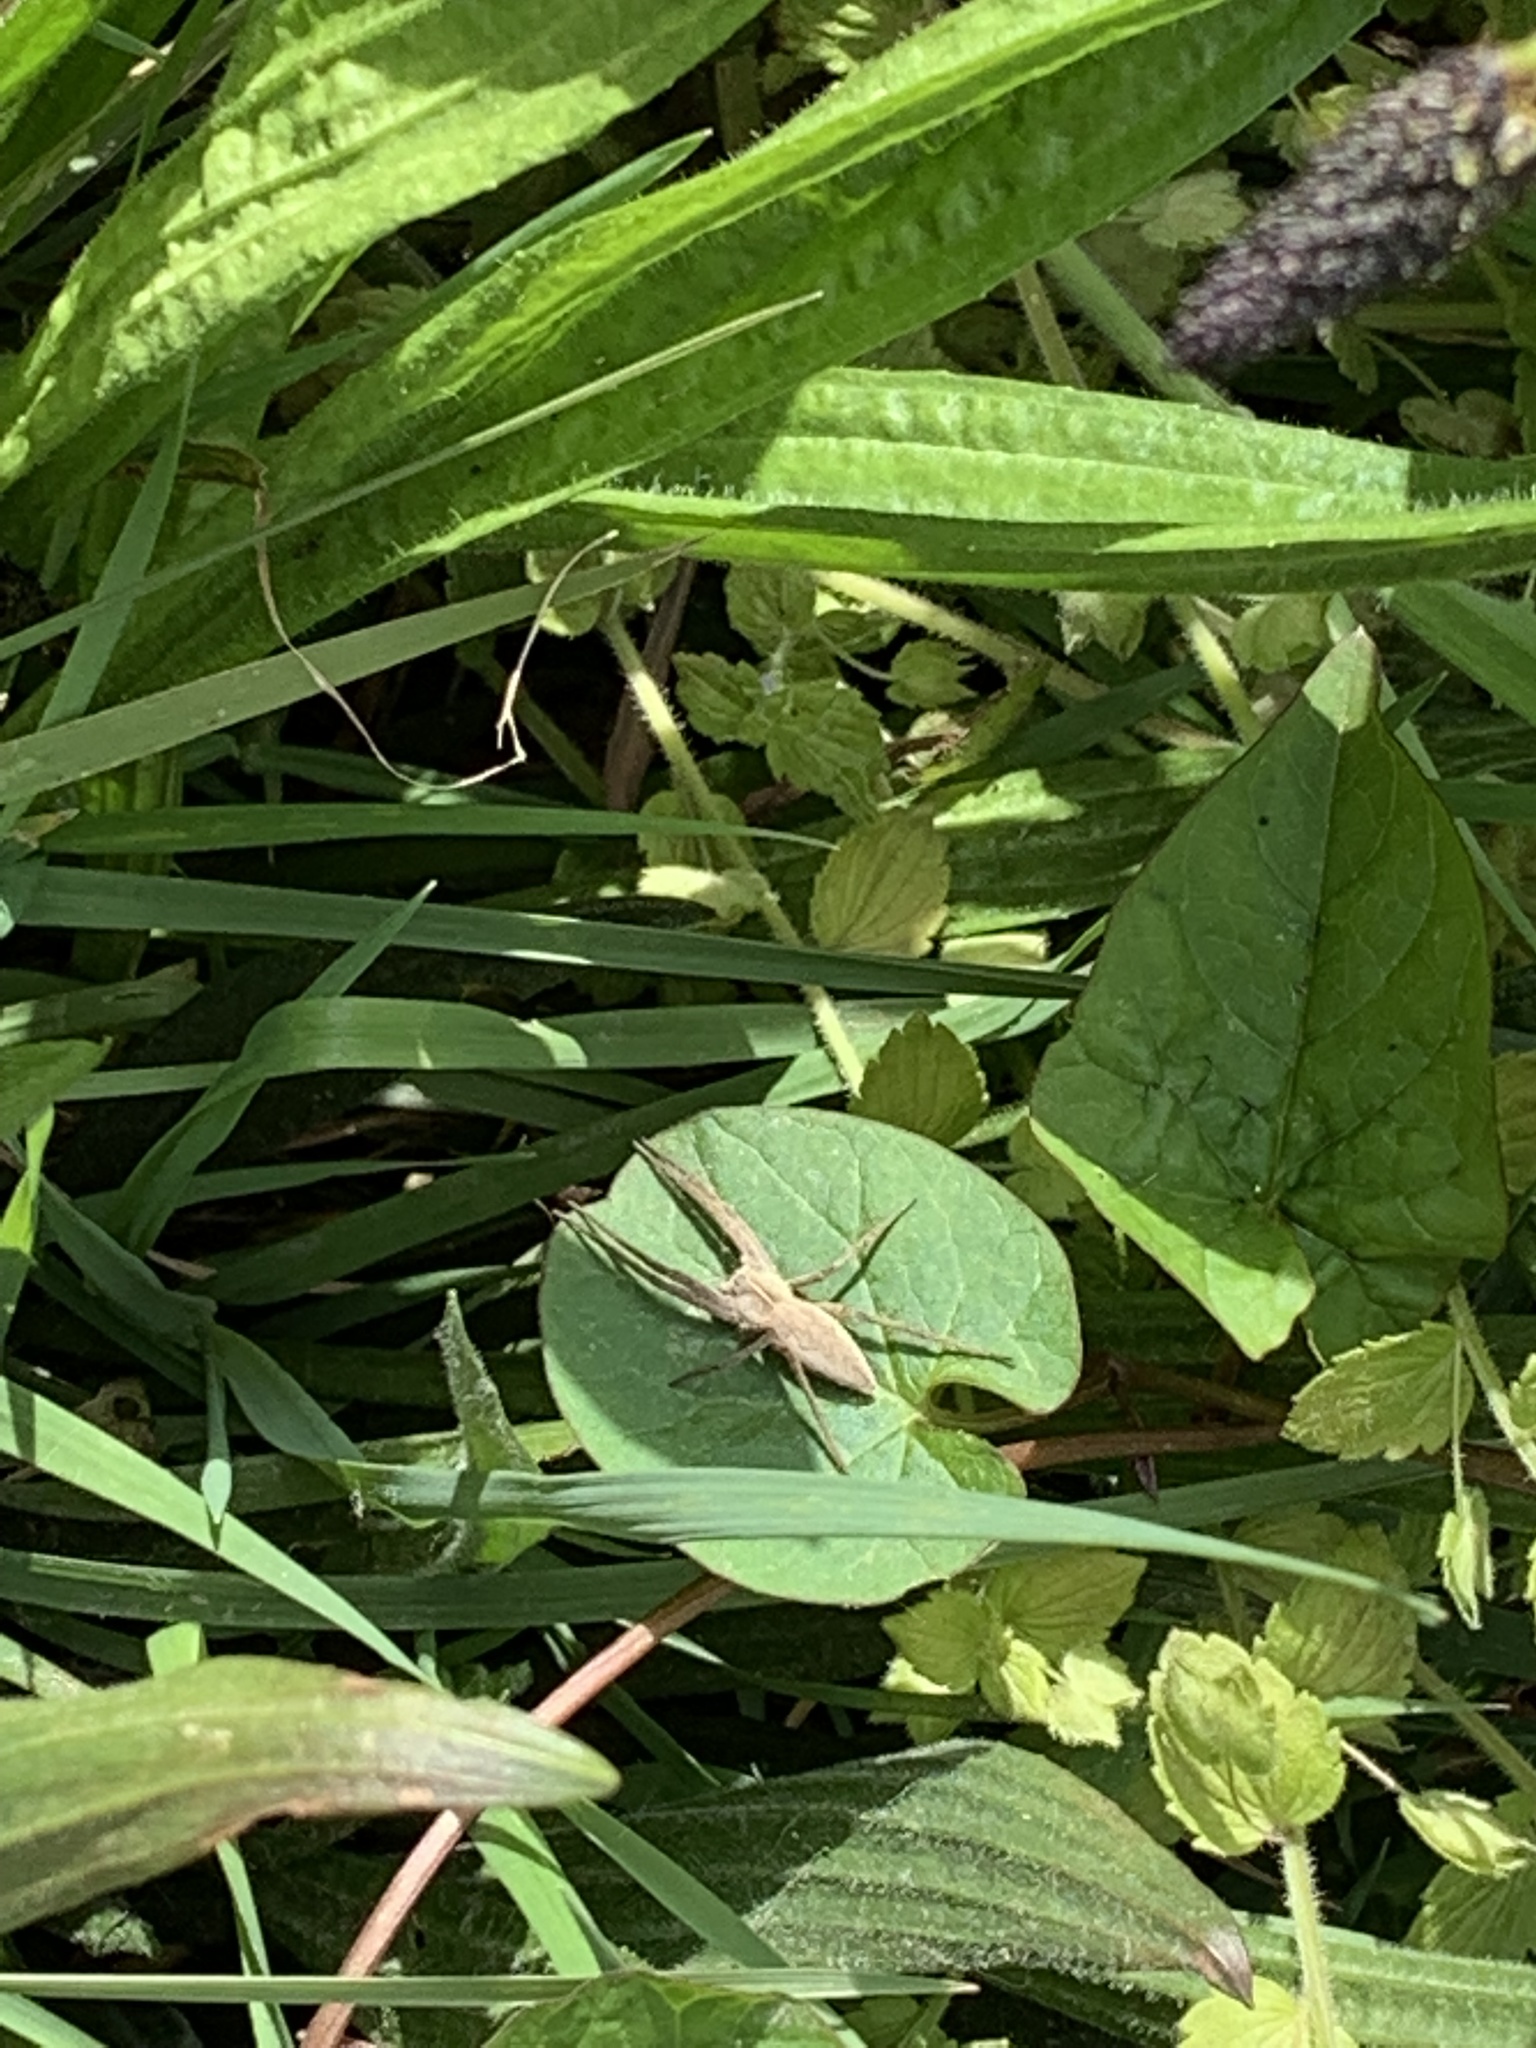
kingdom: Animalia
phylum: Arthropoda
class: Arachnida
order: Araneae
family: Pisauridae
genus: Pisaura
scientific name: Pisaura mirabilis
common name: Tent spider
